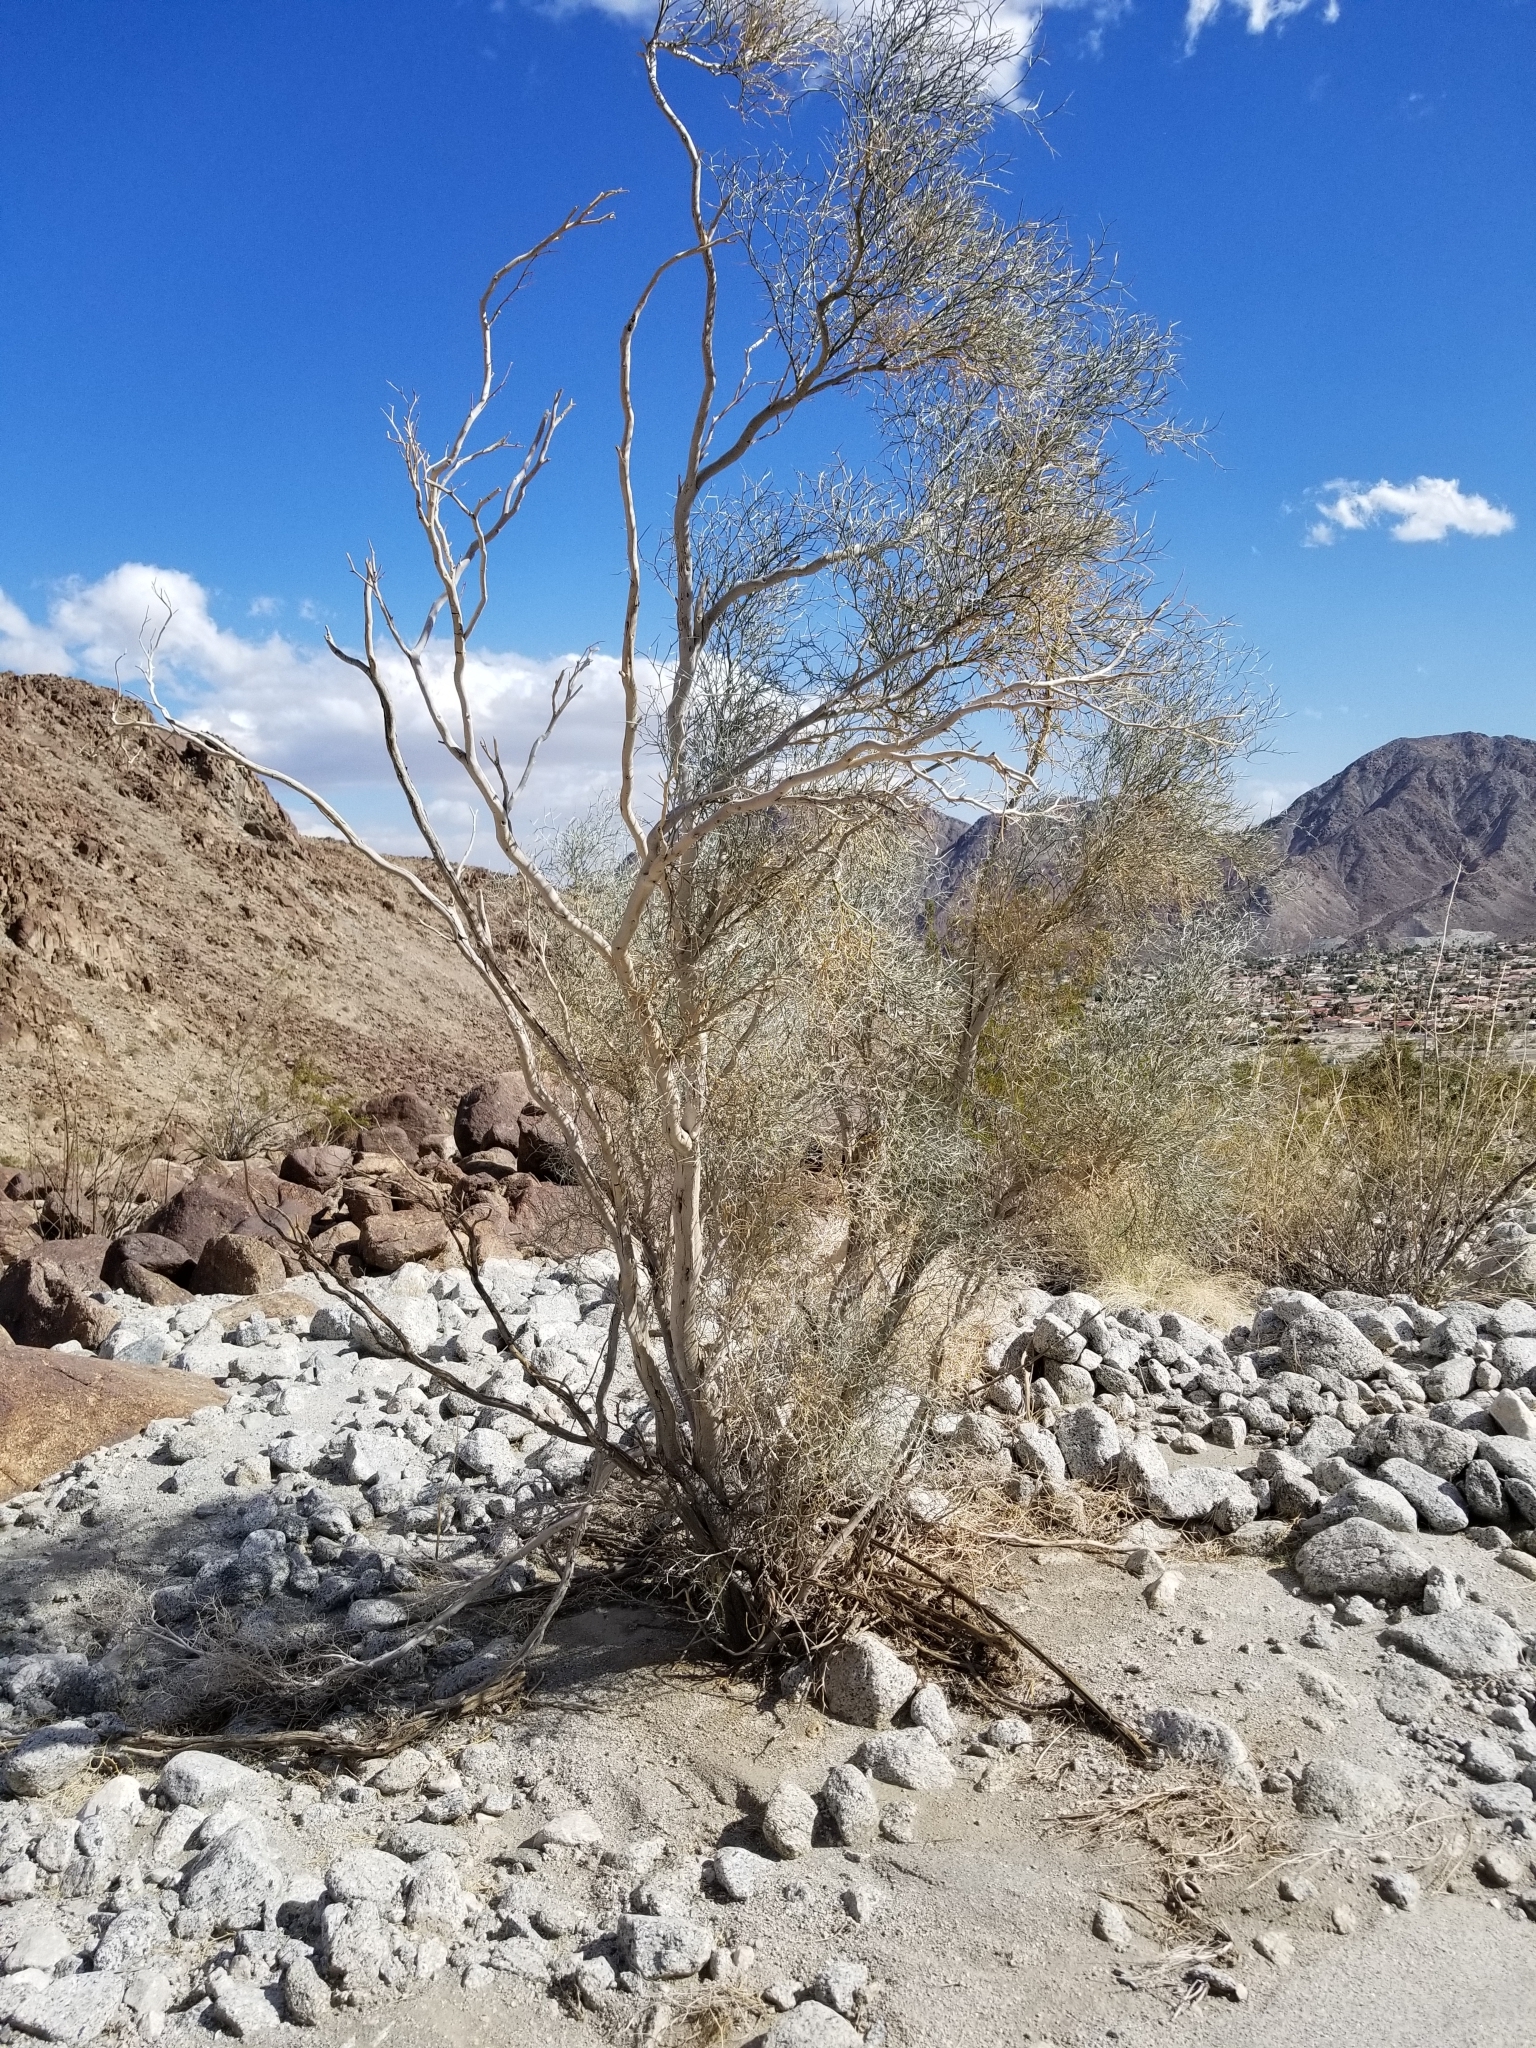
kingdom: Plantae
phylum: Tracheophyta
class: Magnoliopsida
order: Fabales
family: Fabaceae
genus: Psorothamnus
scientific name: Psorothamnus spinosus
